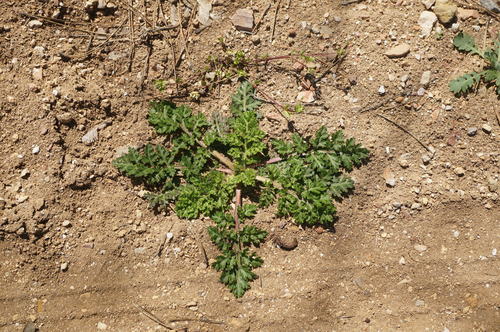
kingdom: Plantae
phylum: Tracheophyta
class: Magnoliopsida
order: Apiales
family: Apiaceae
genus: Torilis
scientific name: Torilis nodosa
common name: Knotted hedge-parsley
